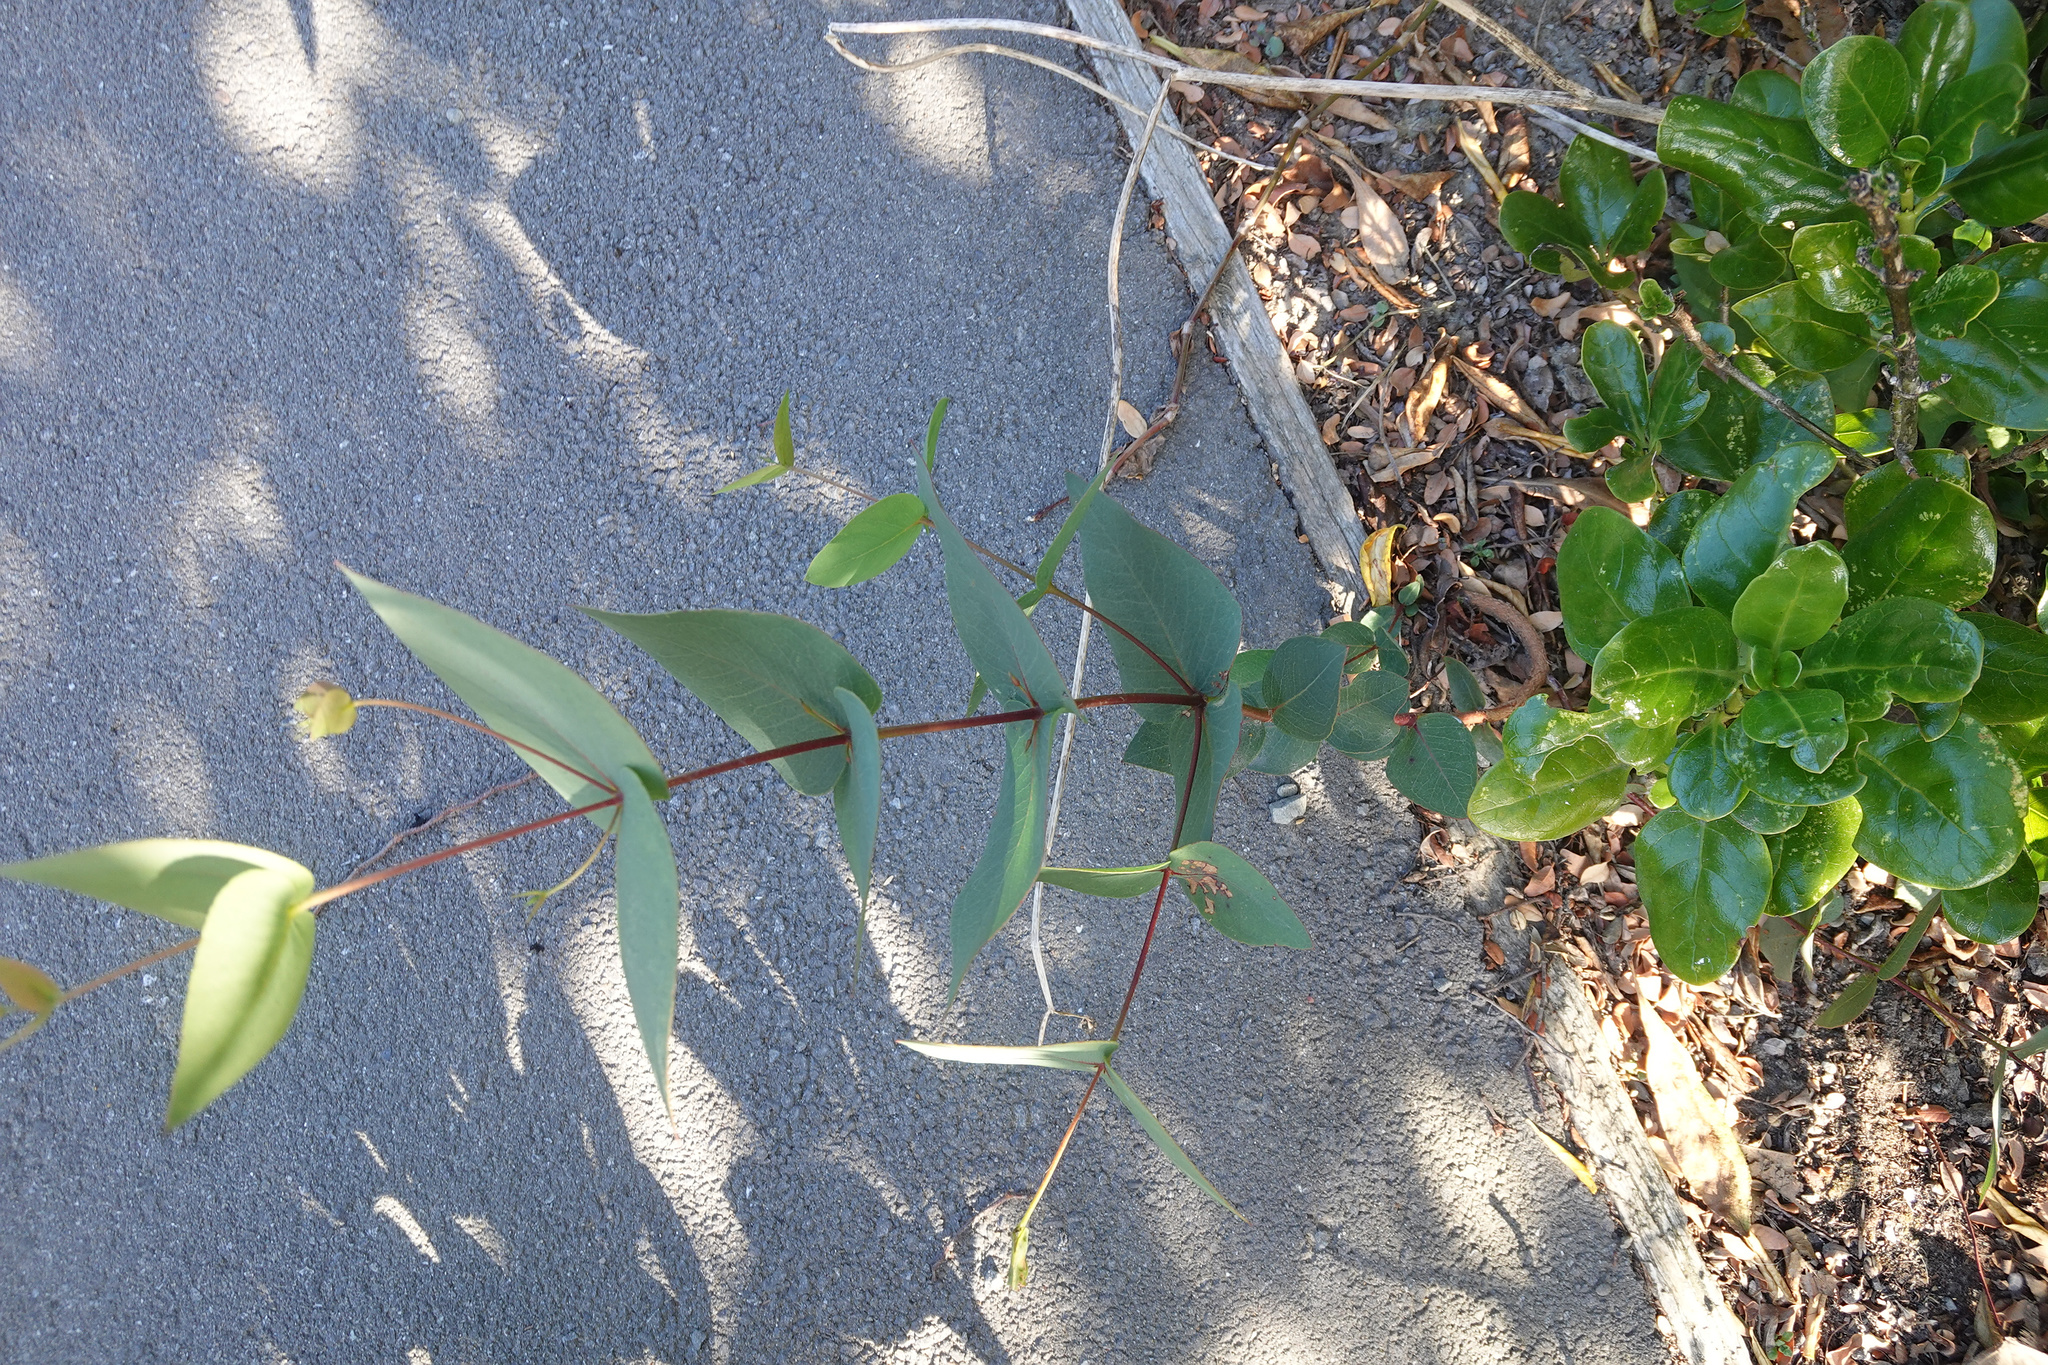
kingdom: Plantae
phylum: Tracheophyta
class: Magnoliopsida
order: Myrtales
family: Myrtaceae
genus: Eucalyptus
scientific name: Eucalyptus leucoxylon
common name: Blue gum
